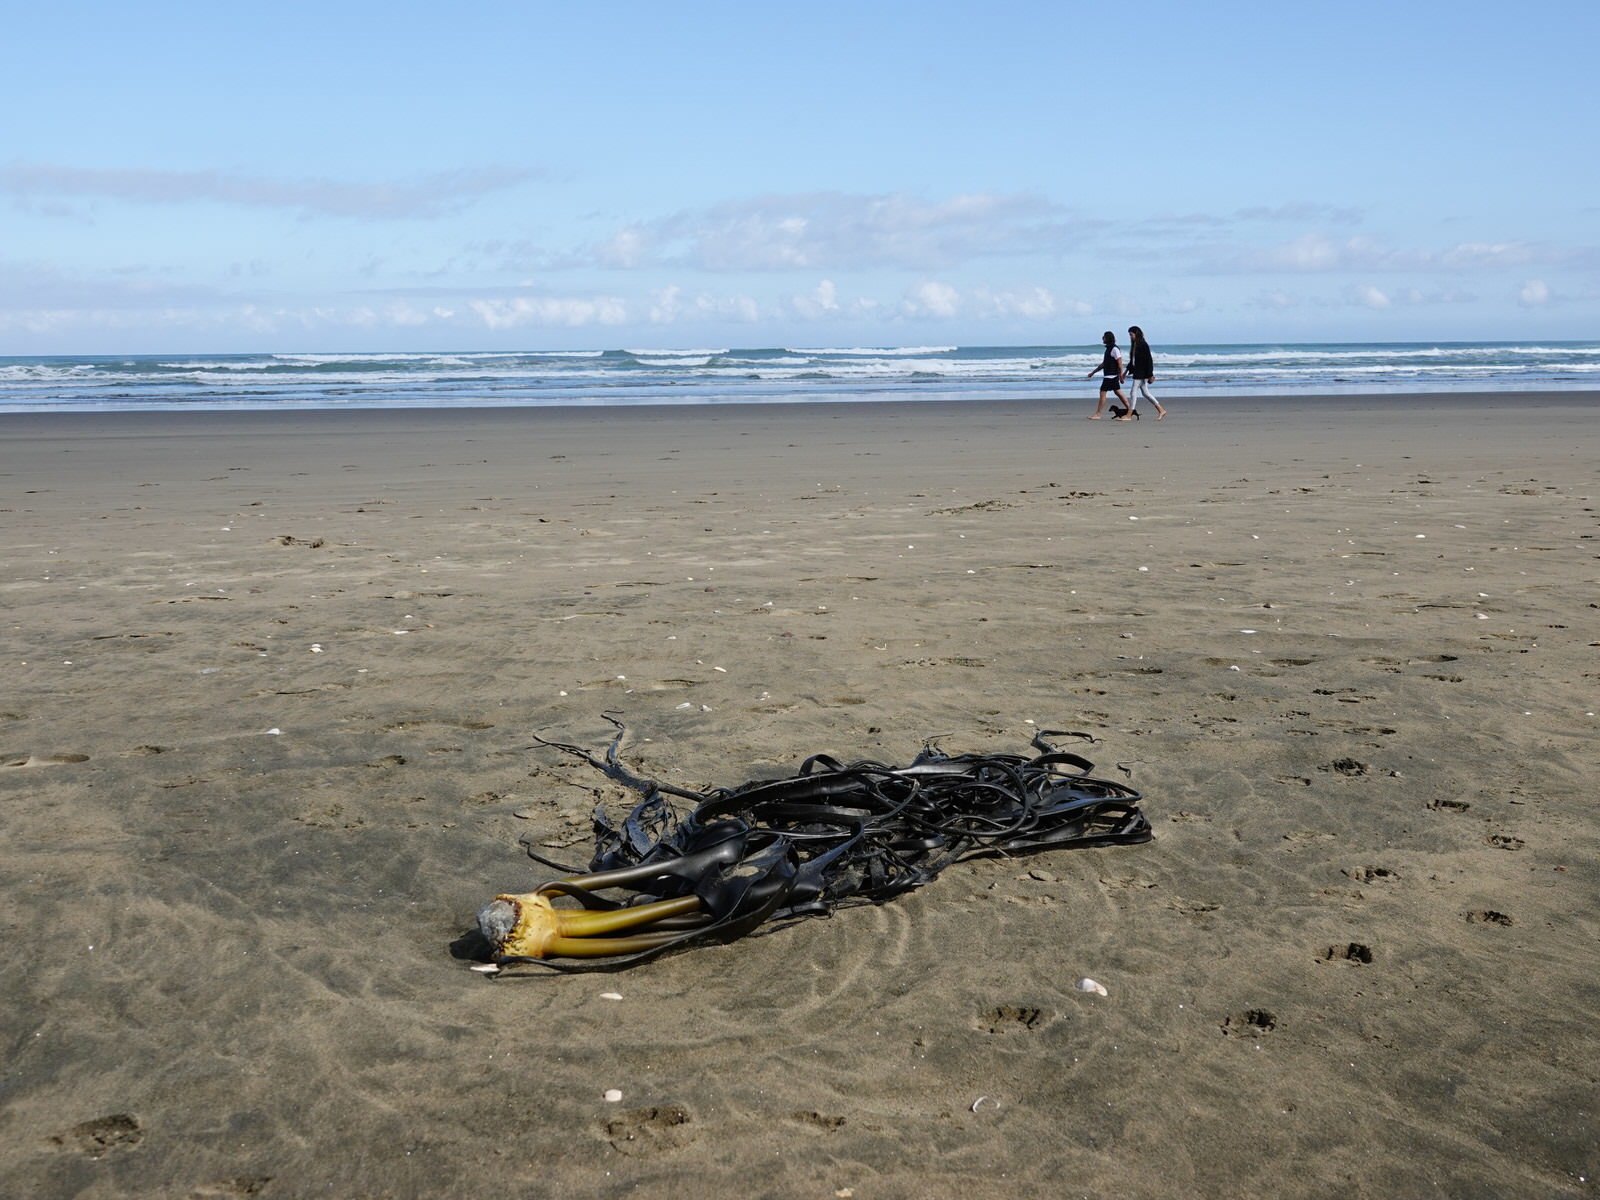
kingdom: Chromista
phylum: Ochrophyta
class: Phaeophyceae
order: Fucales
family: Durvillaeaceae
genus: Durvillaea
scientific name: Durvillaea antarctica
